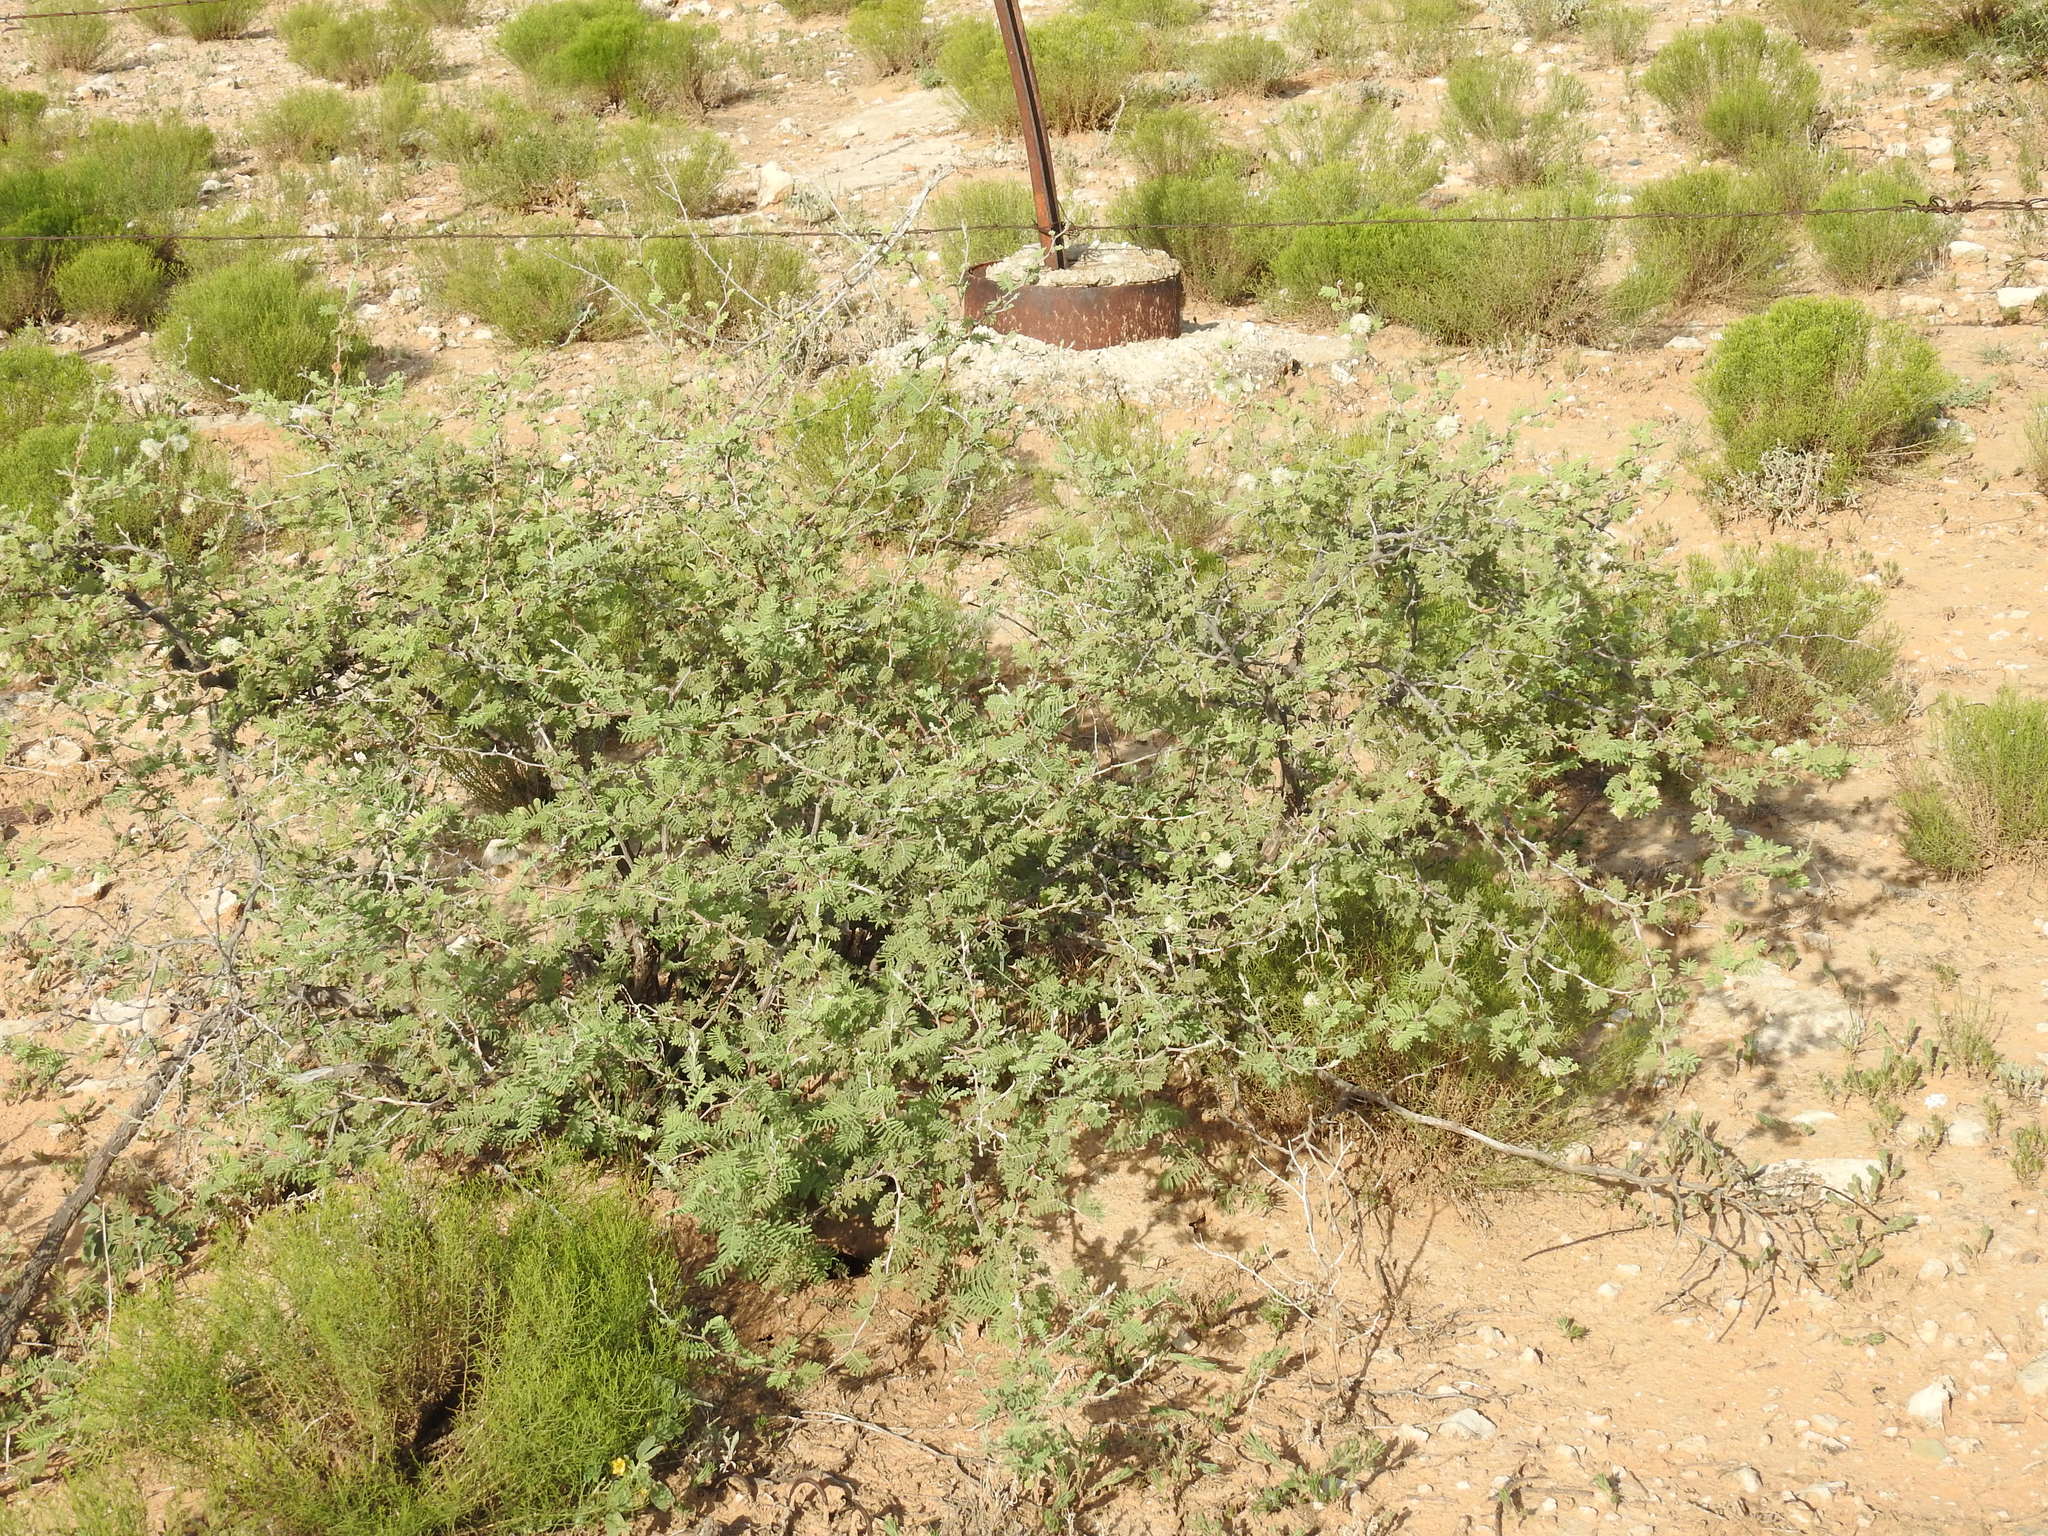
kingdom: Plantae
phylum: Tracheophyta
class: Magnoliopsida
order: Fabales
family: Fabaceae
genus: Mimosa
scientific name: Mimosa aculeaticarpa
